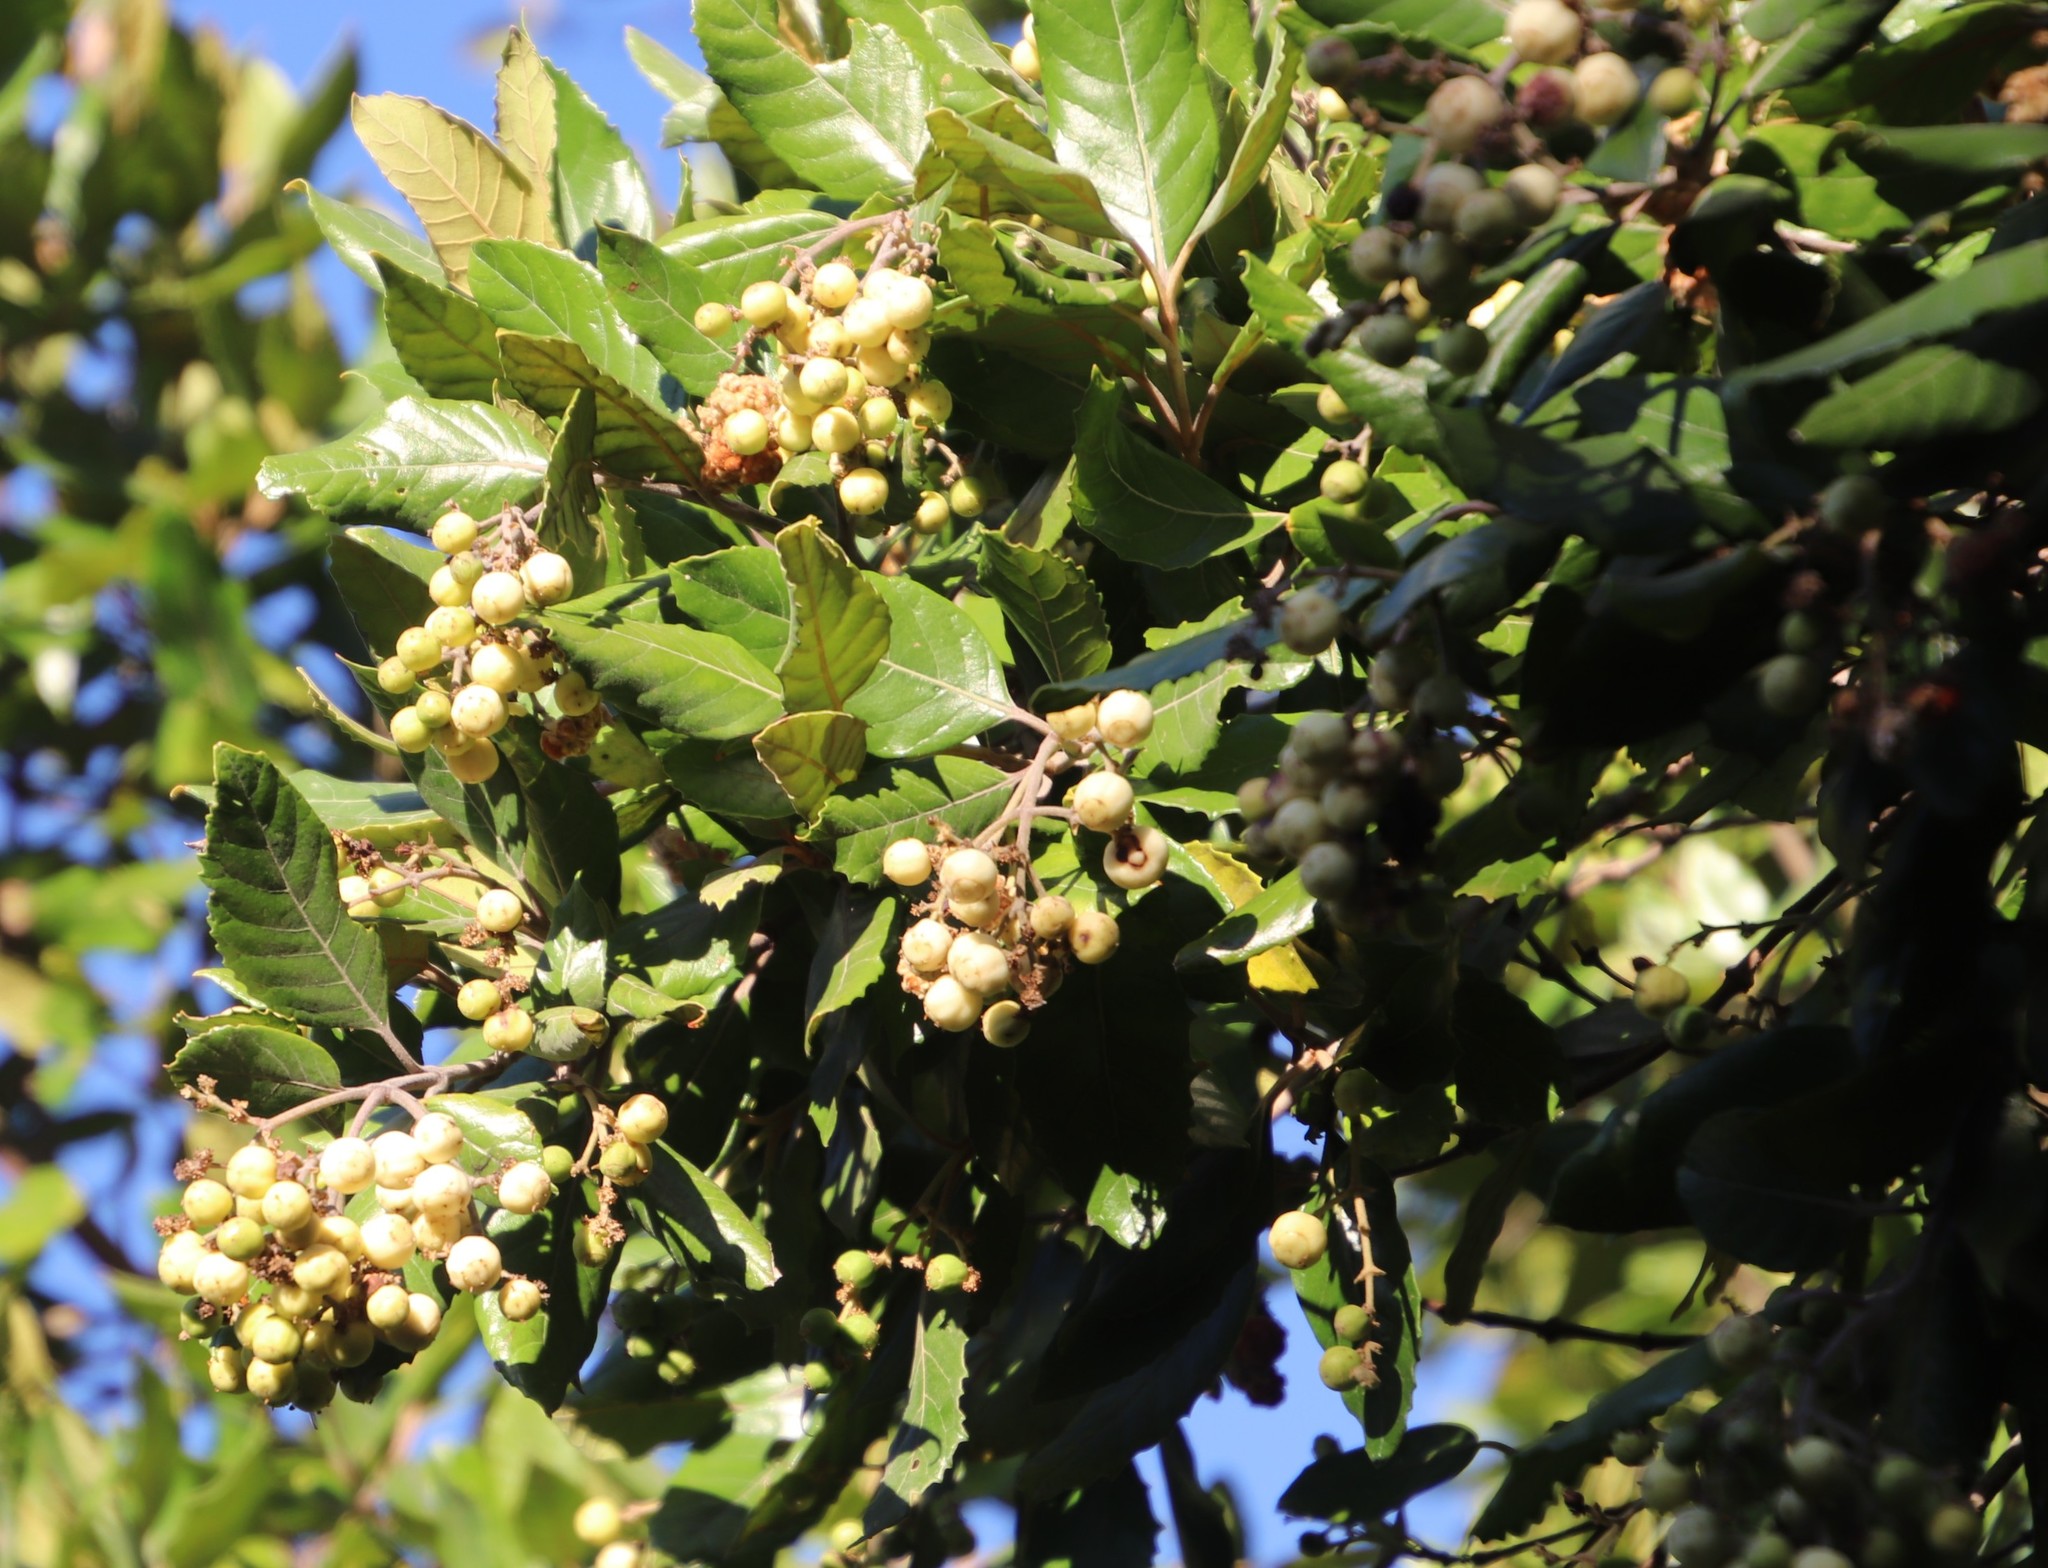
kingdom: Plantae
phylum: Tracheophyta
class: Magnoliopsida
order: Cornales
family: Curtisiaceae
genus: Curtisia
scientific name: Curtisia dentata
